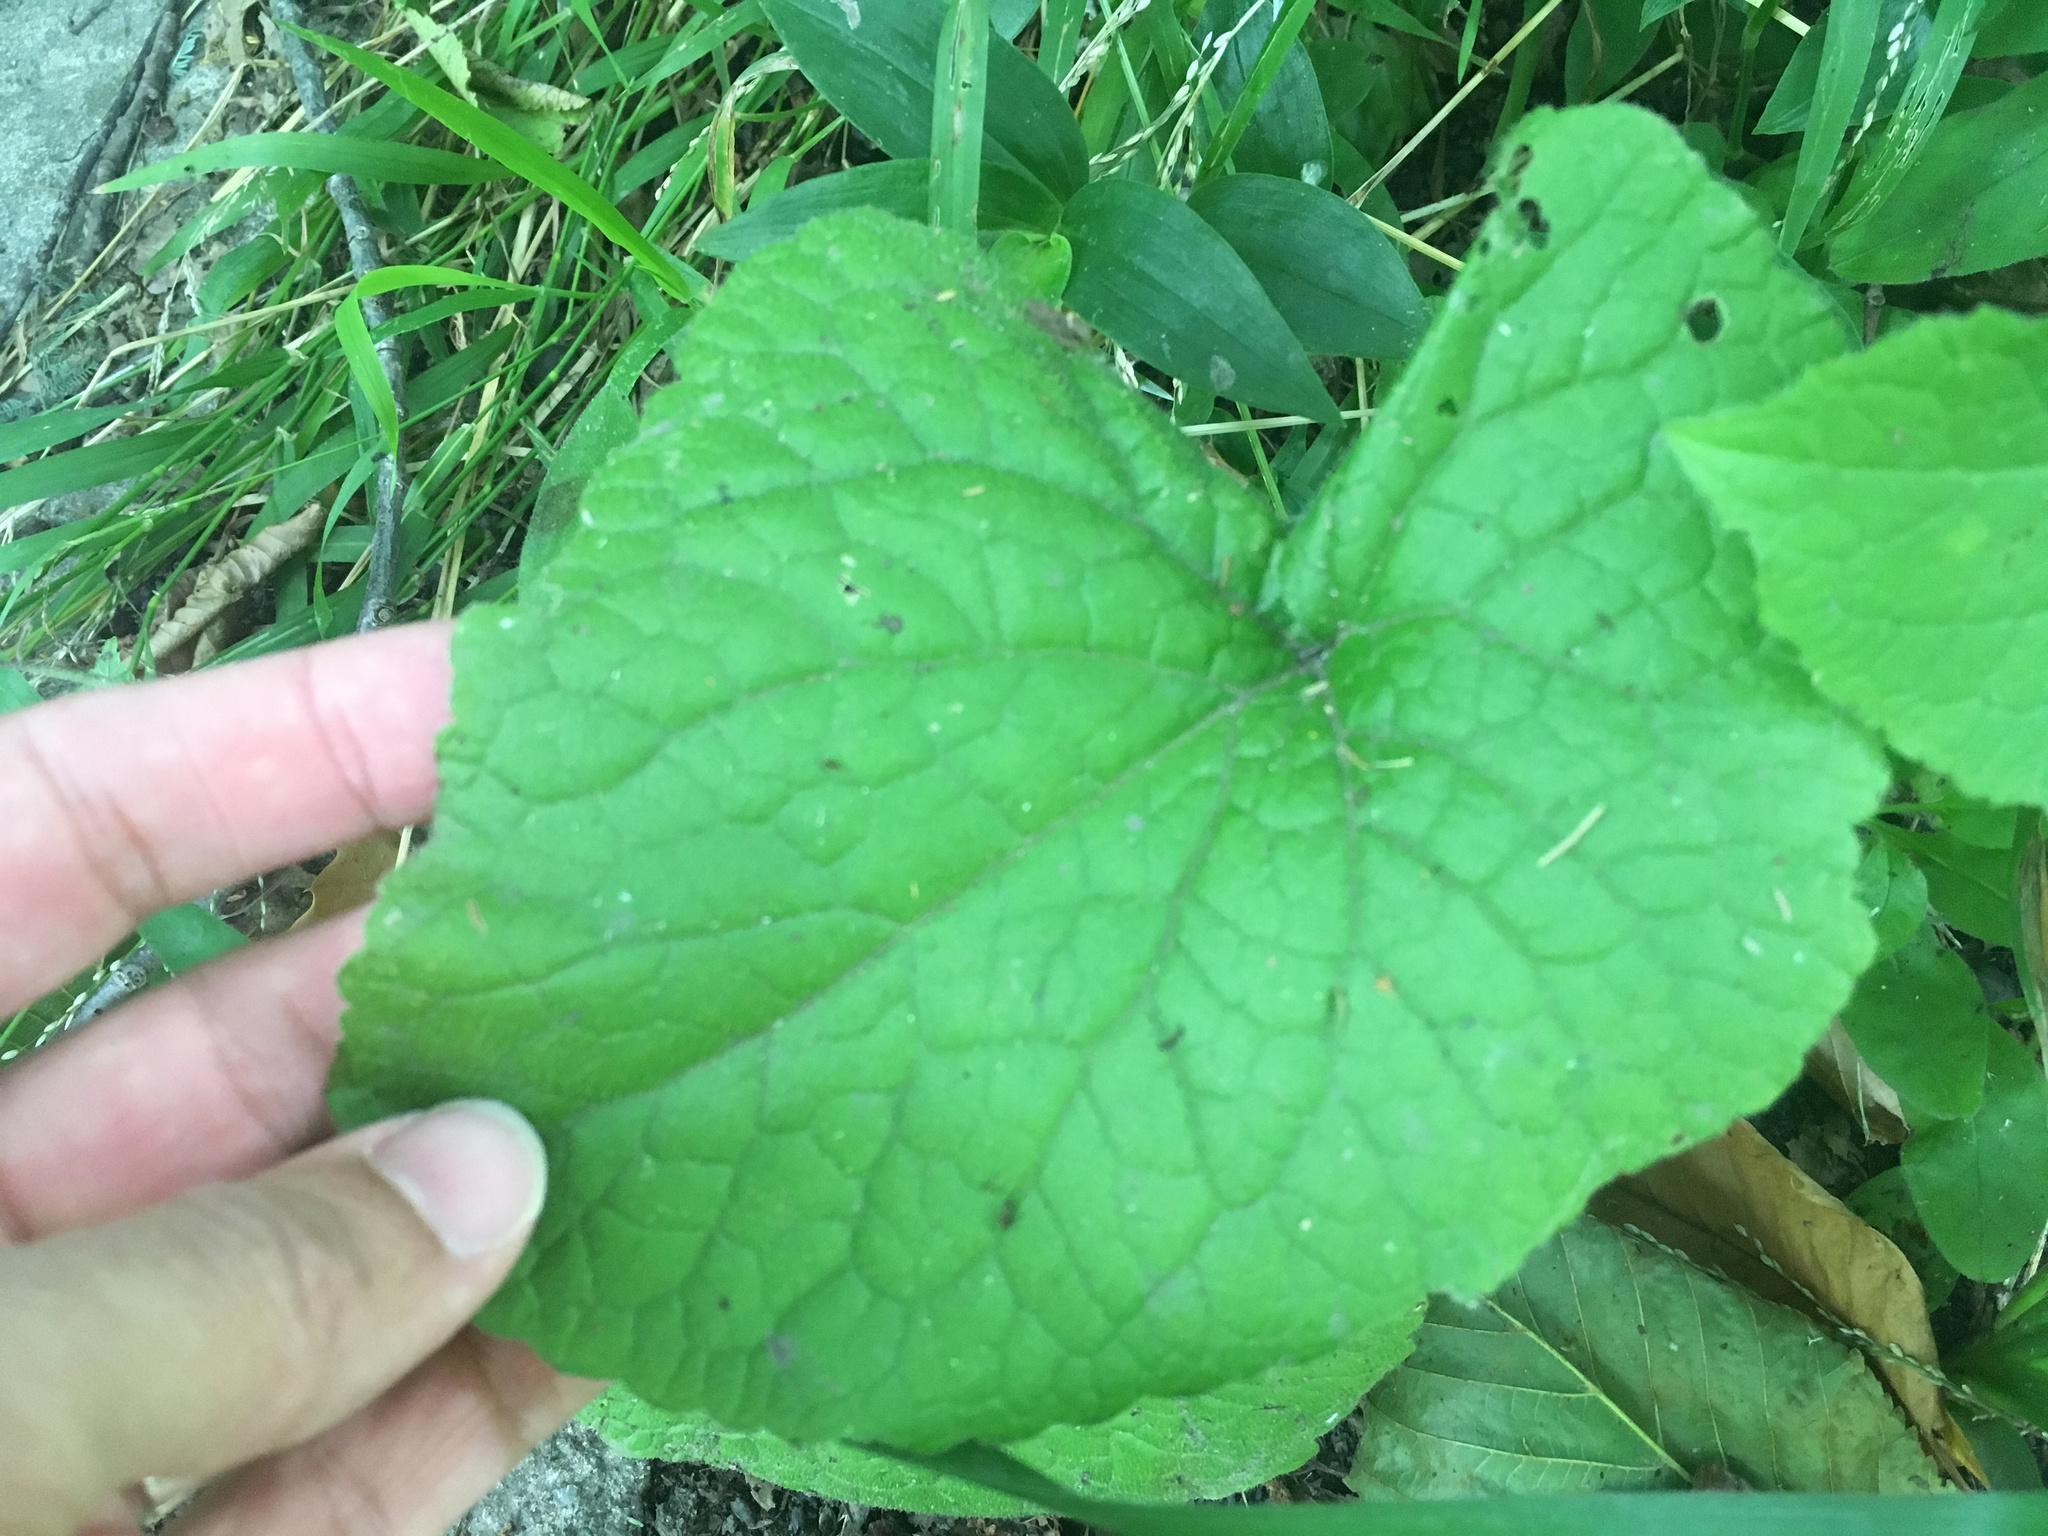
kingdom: Plantae
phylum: Tracheophyta
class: Magnoliopsida
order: Brassicales
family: Brassicaceae
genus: Lunaria
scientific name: Lunaria annua
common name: Honesty
